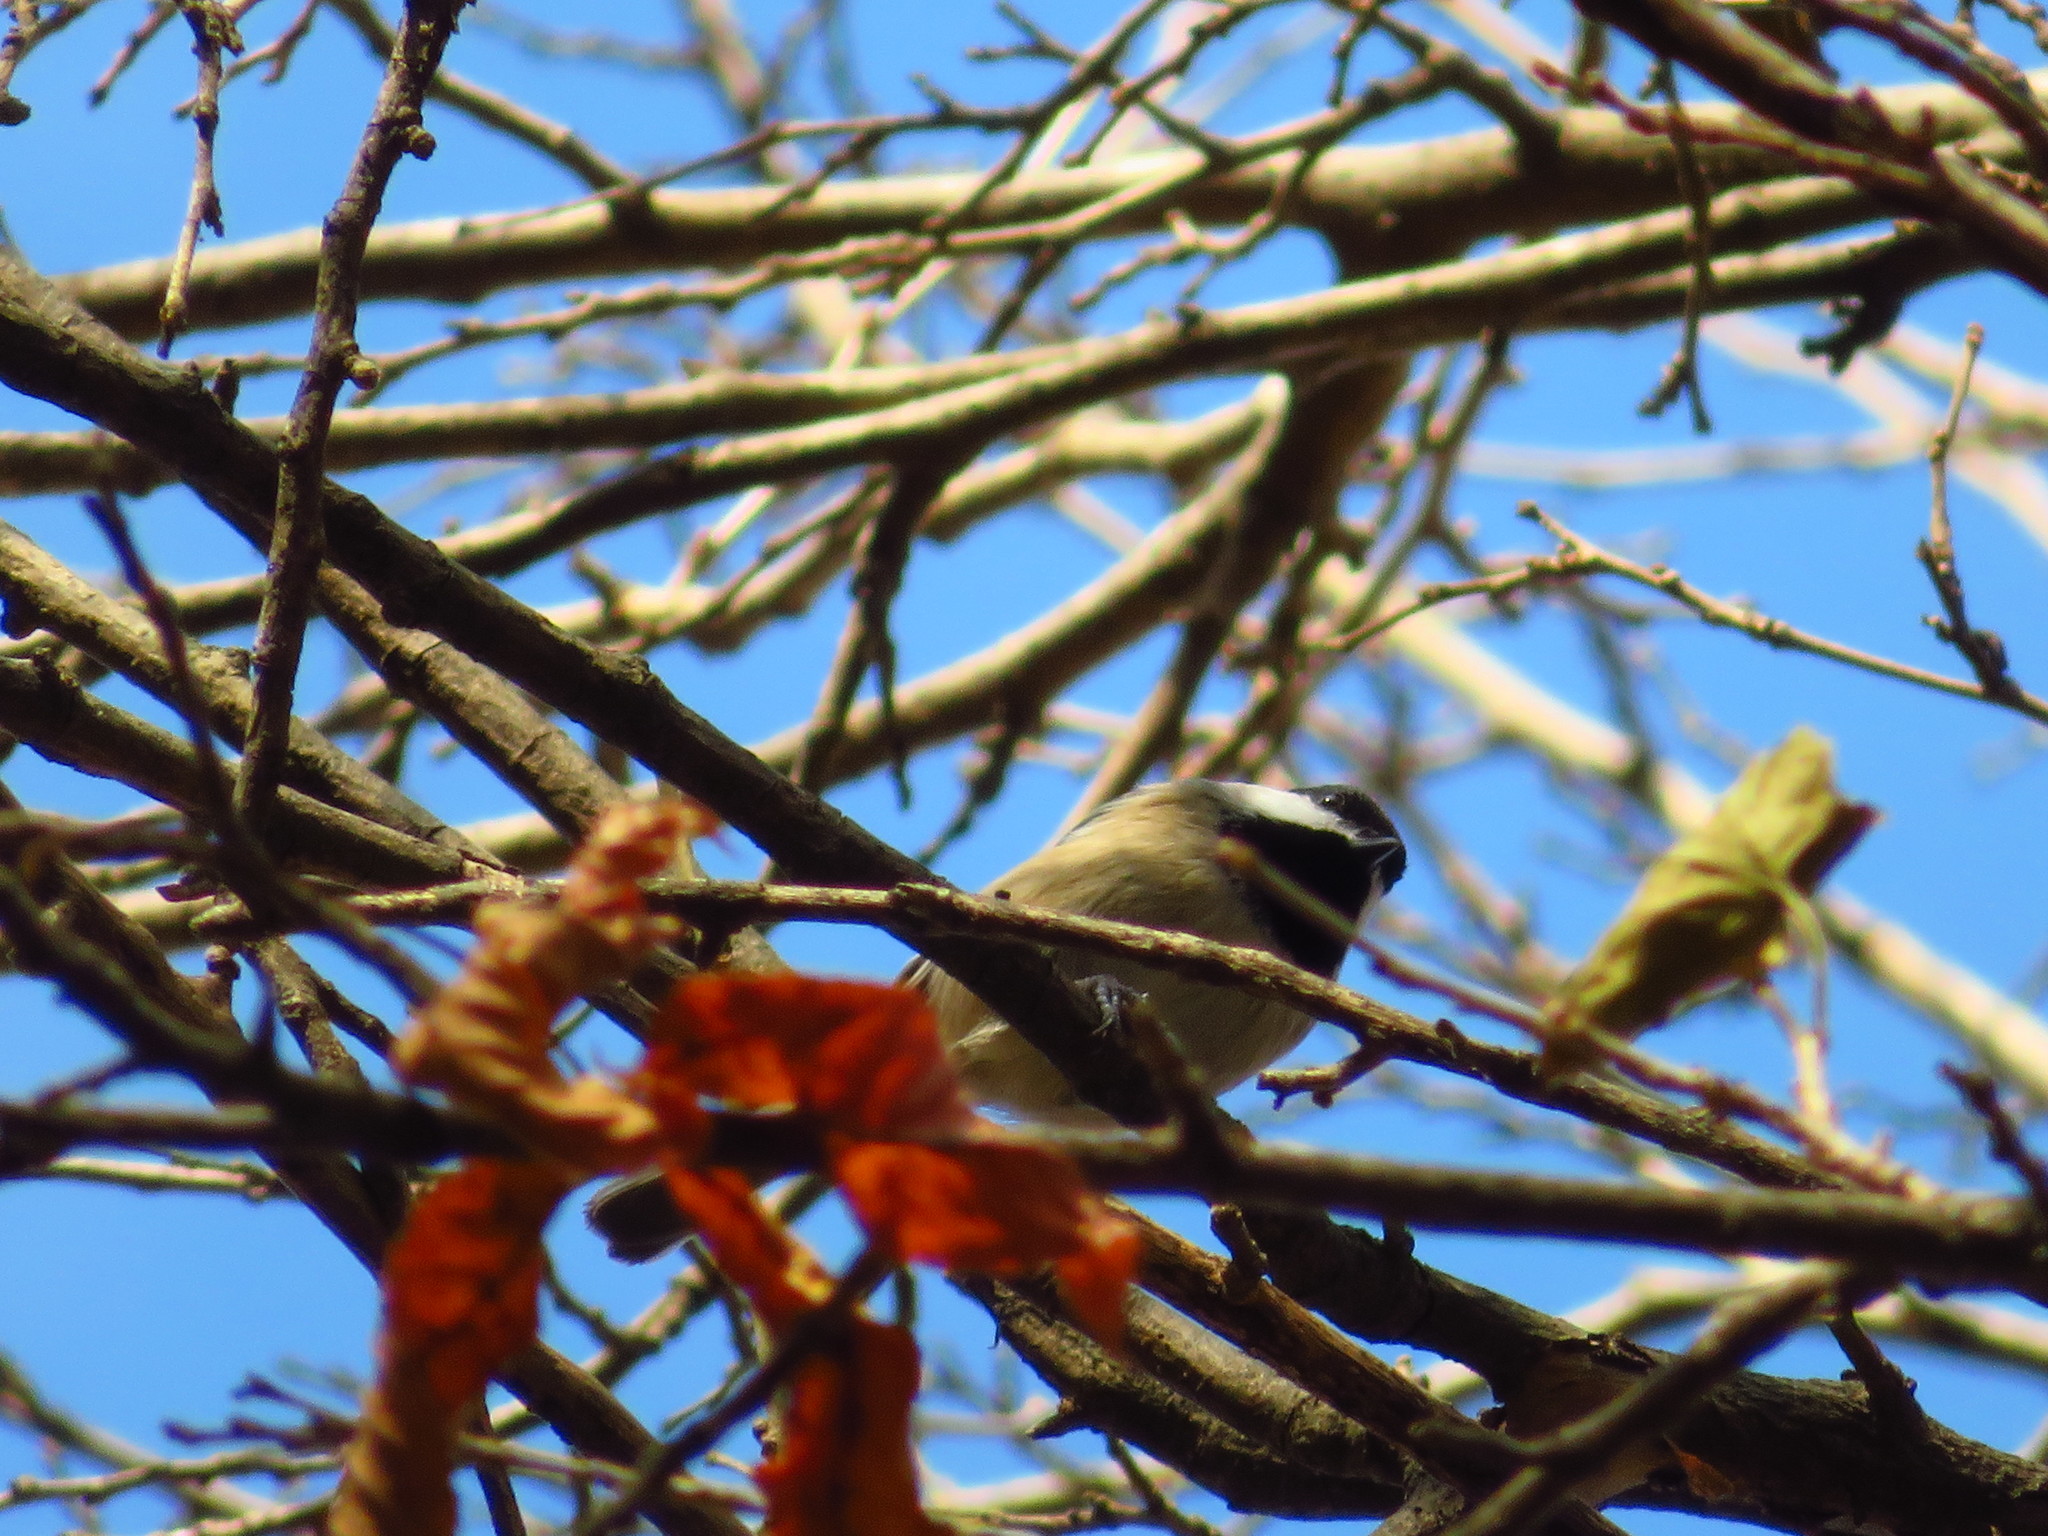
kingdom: Animalia
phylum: Chordata
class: Aves
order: Passeriformes
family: Paridae
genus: Poecile
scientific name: Poecile carolinensis
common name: Carolina chickadee
